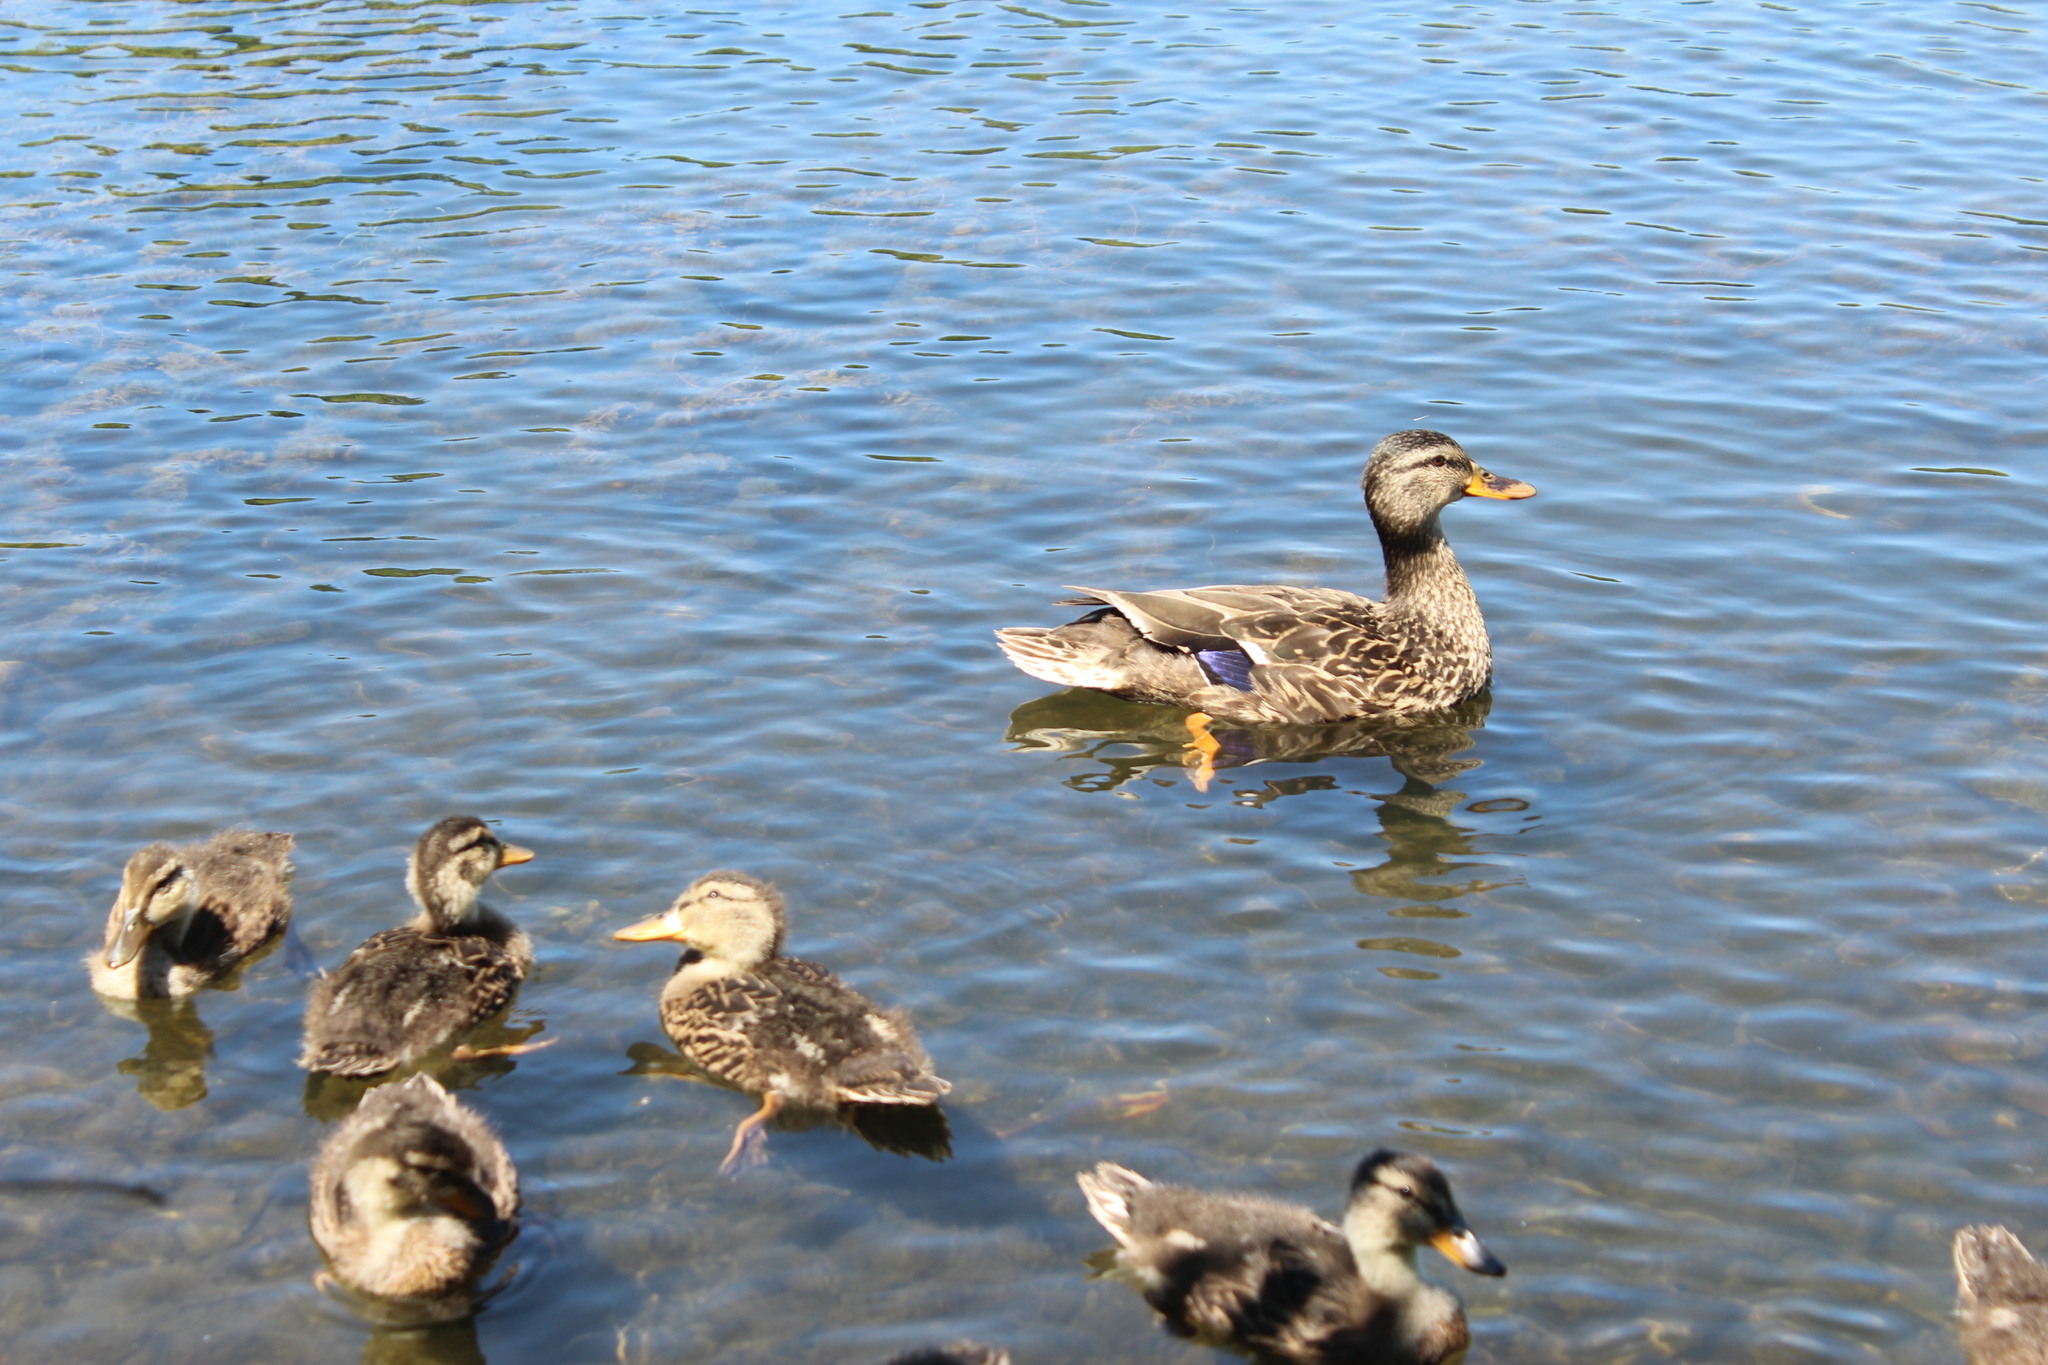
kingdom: Animalia
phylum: Chordata
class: Aves
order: Anseriformes
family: Anatidae
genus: Anas
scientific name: Anas platyrhynchos
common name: Mallard
